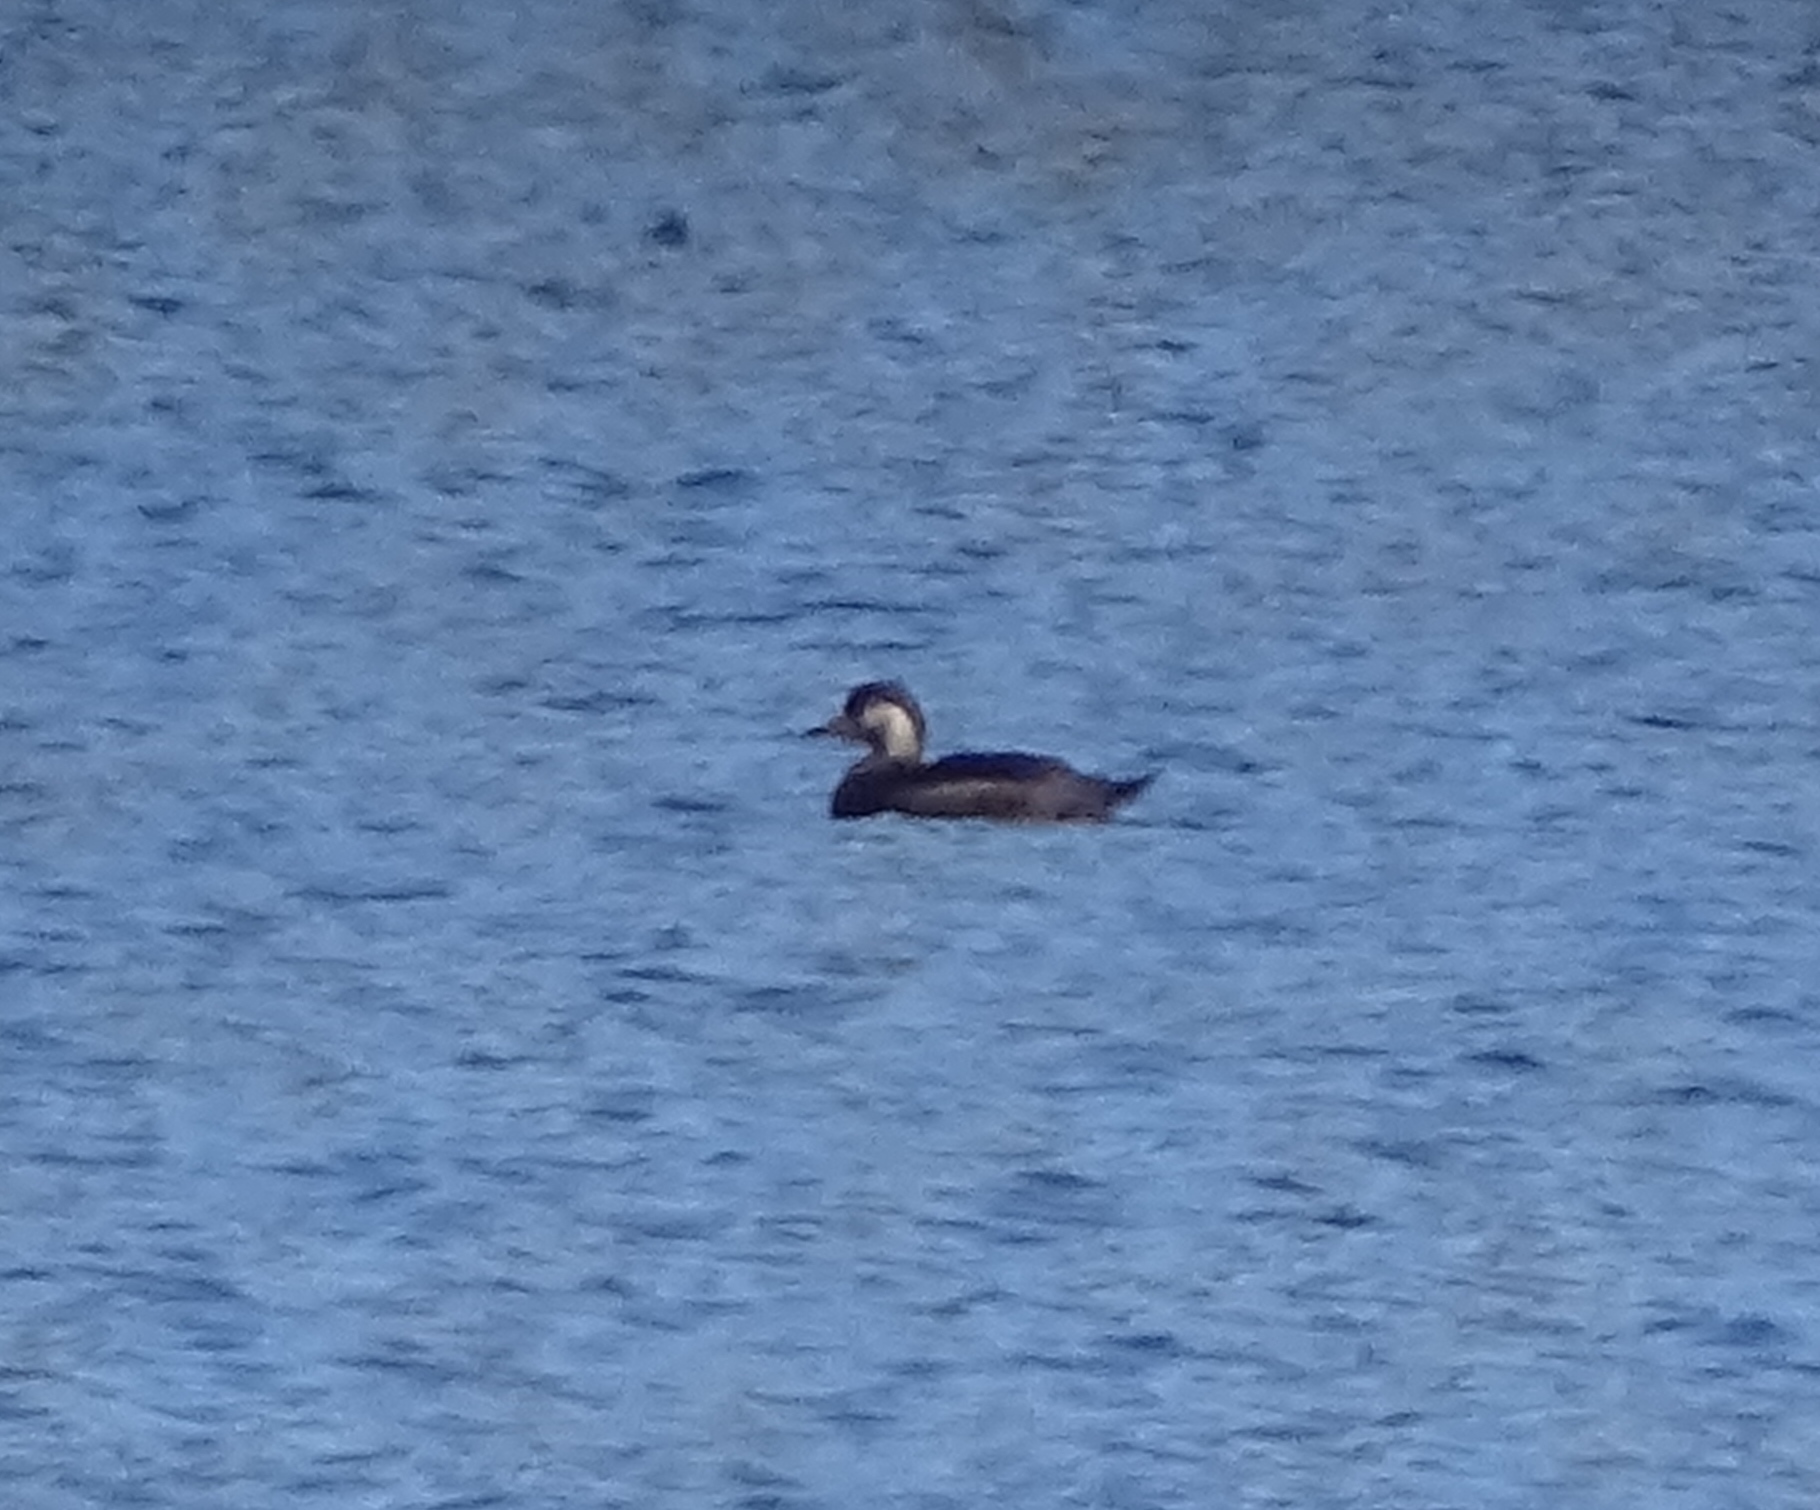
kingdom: Animalia
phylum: Chordata
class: Aves
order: Anseriformes
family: Anatidae
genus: Melanitta
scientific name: Melanitta americana
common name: Black scoter
